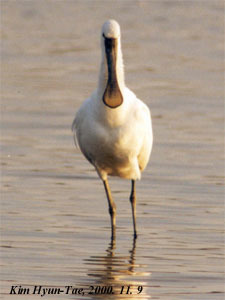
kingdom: Animalia
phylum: Chordata
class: Aves
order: Pelecaniformes
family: Threskiornithidae
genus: Platalea
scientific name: Platalea leucorodia
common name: Eurasian spoonbill
